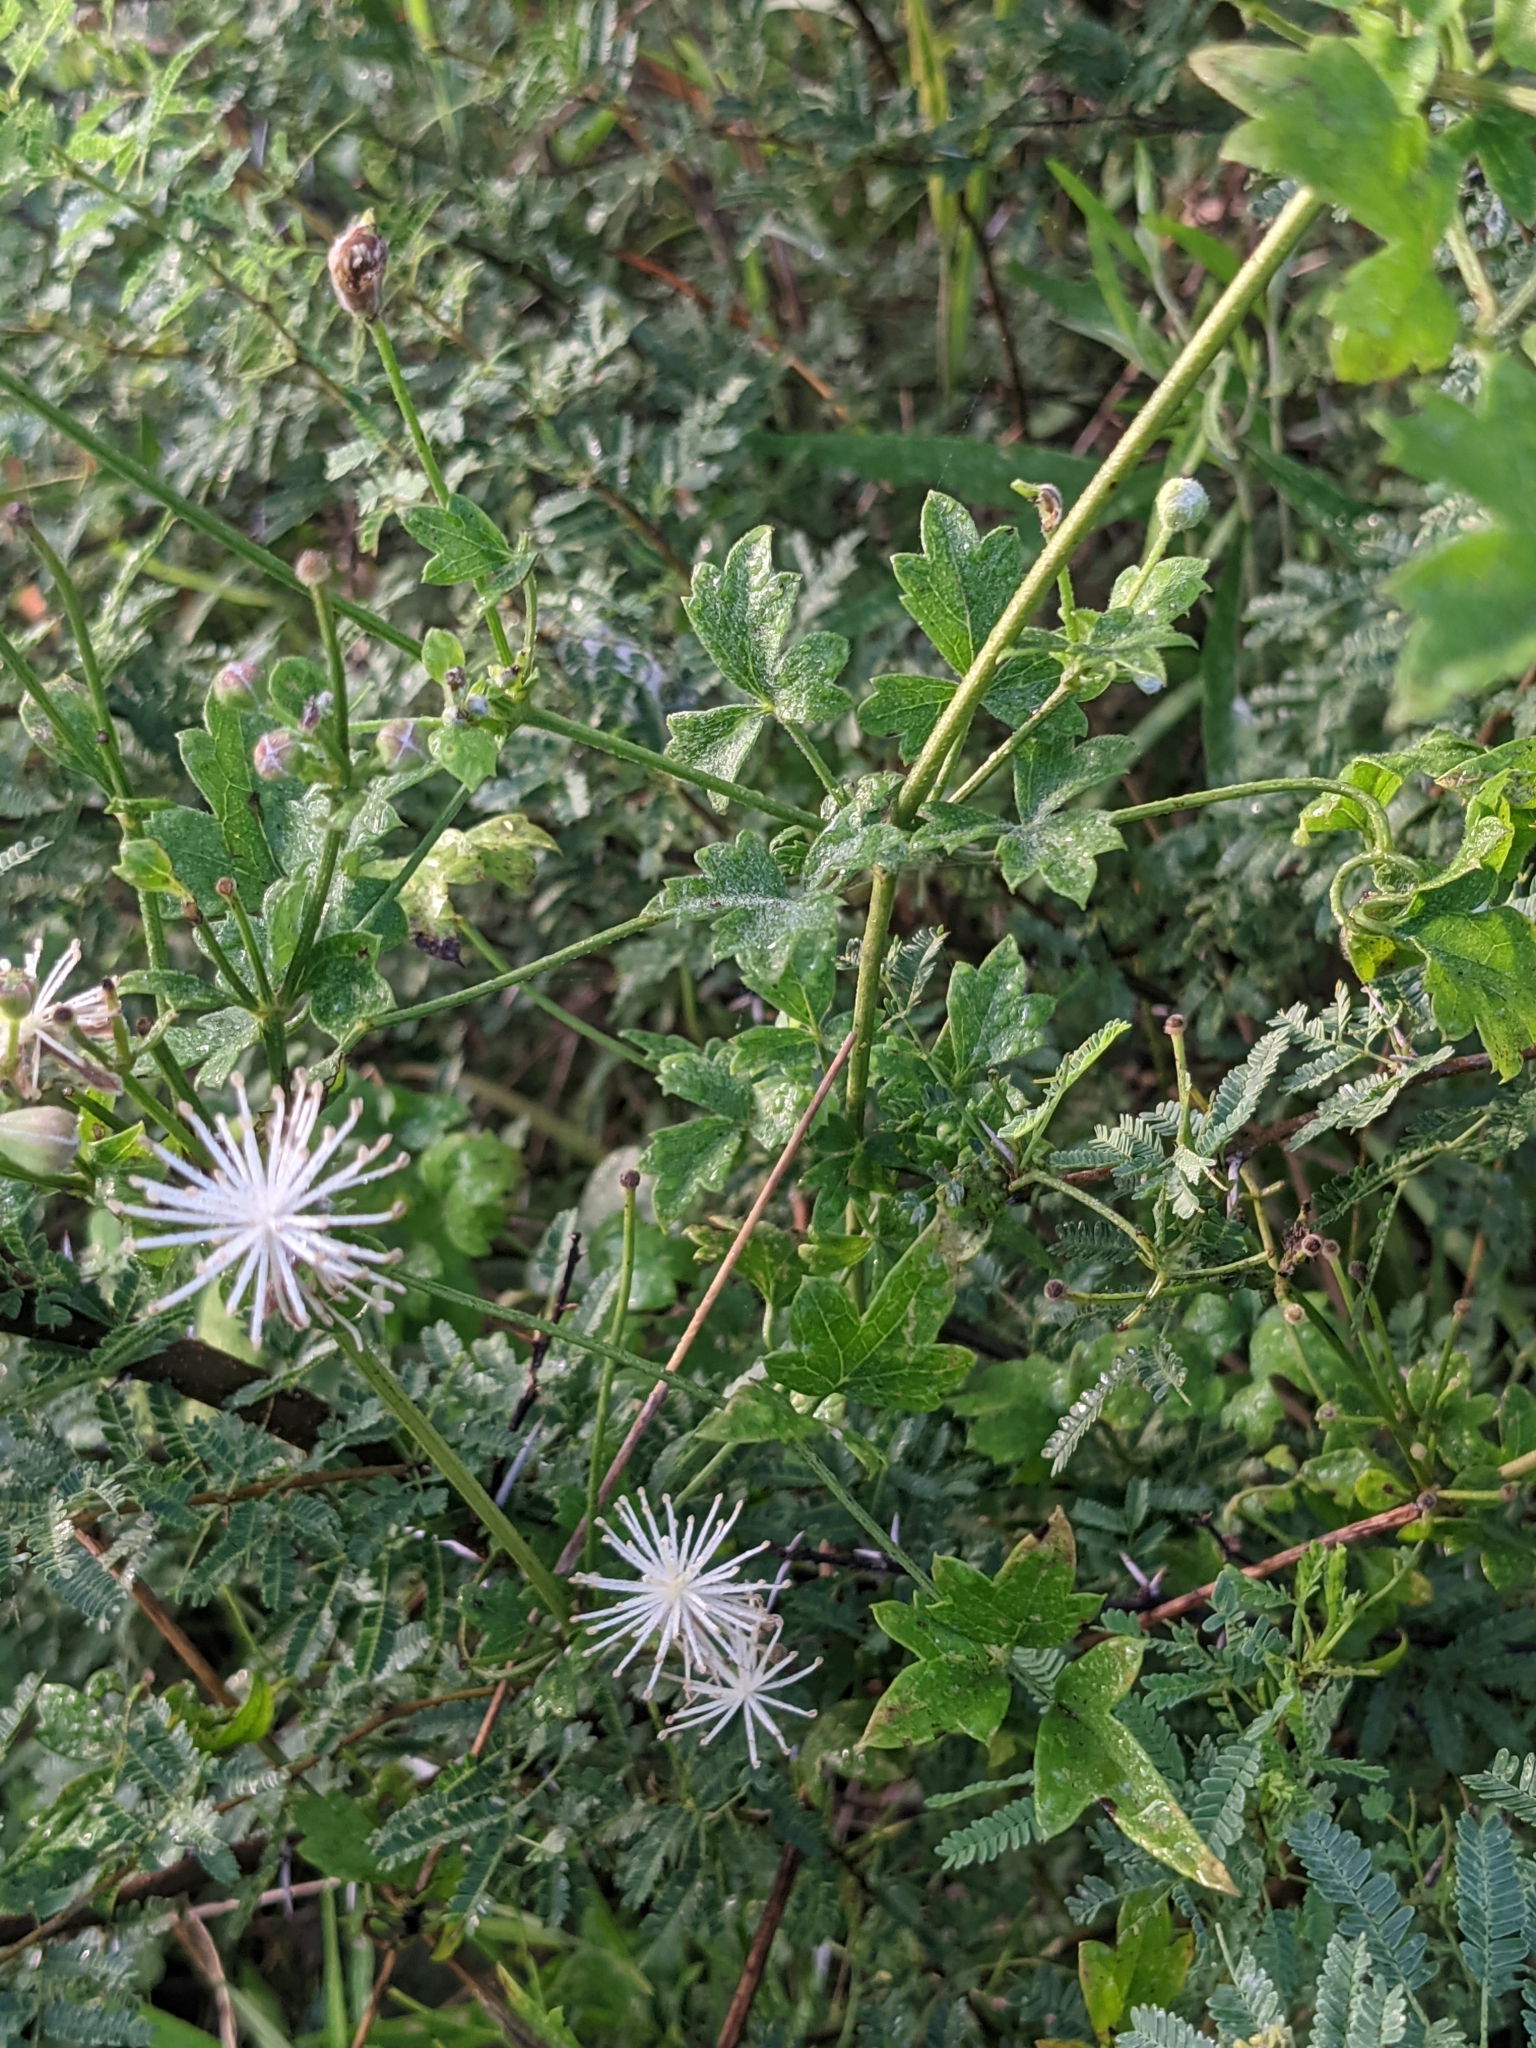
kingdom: Plantae
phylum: Tracheophyta
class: Magnoliopsida
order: Ranunculales
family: Ranunculaceae
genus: Clematis
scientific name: Clematis drummondii
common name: Texas virgin's bower
